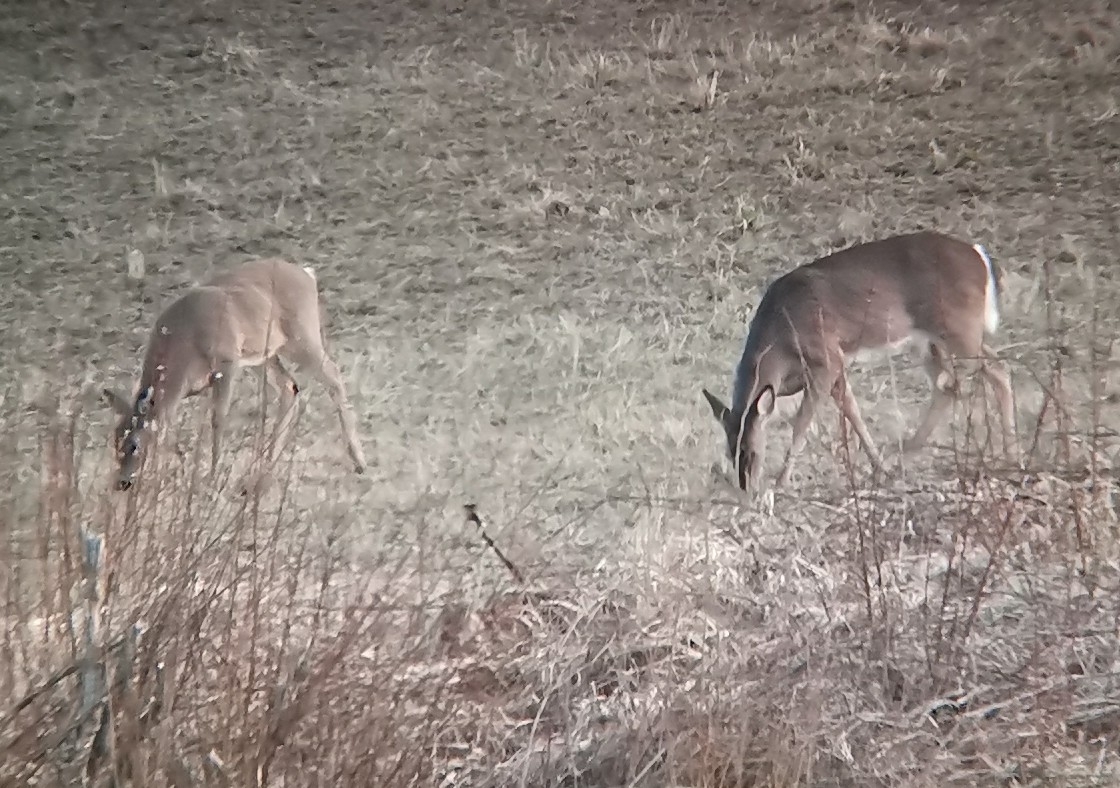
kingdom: Animalia
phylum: Chordata
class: Mammalia
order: Artiodactyla
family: Cervidae
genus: Odocoileus
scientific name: Odocoileus virginianus
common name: White-tailed deer
